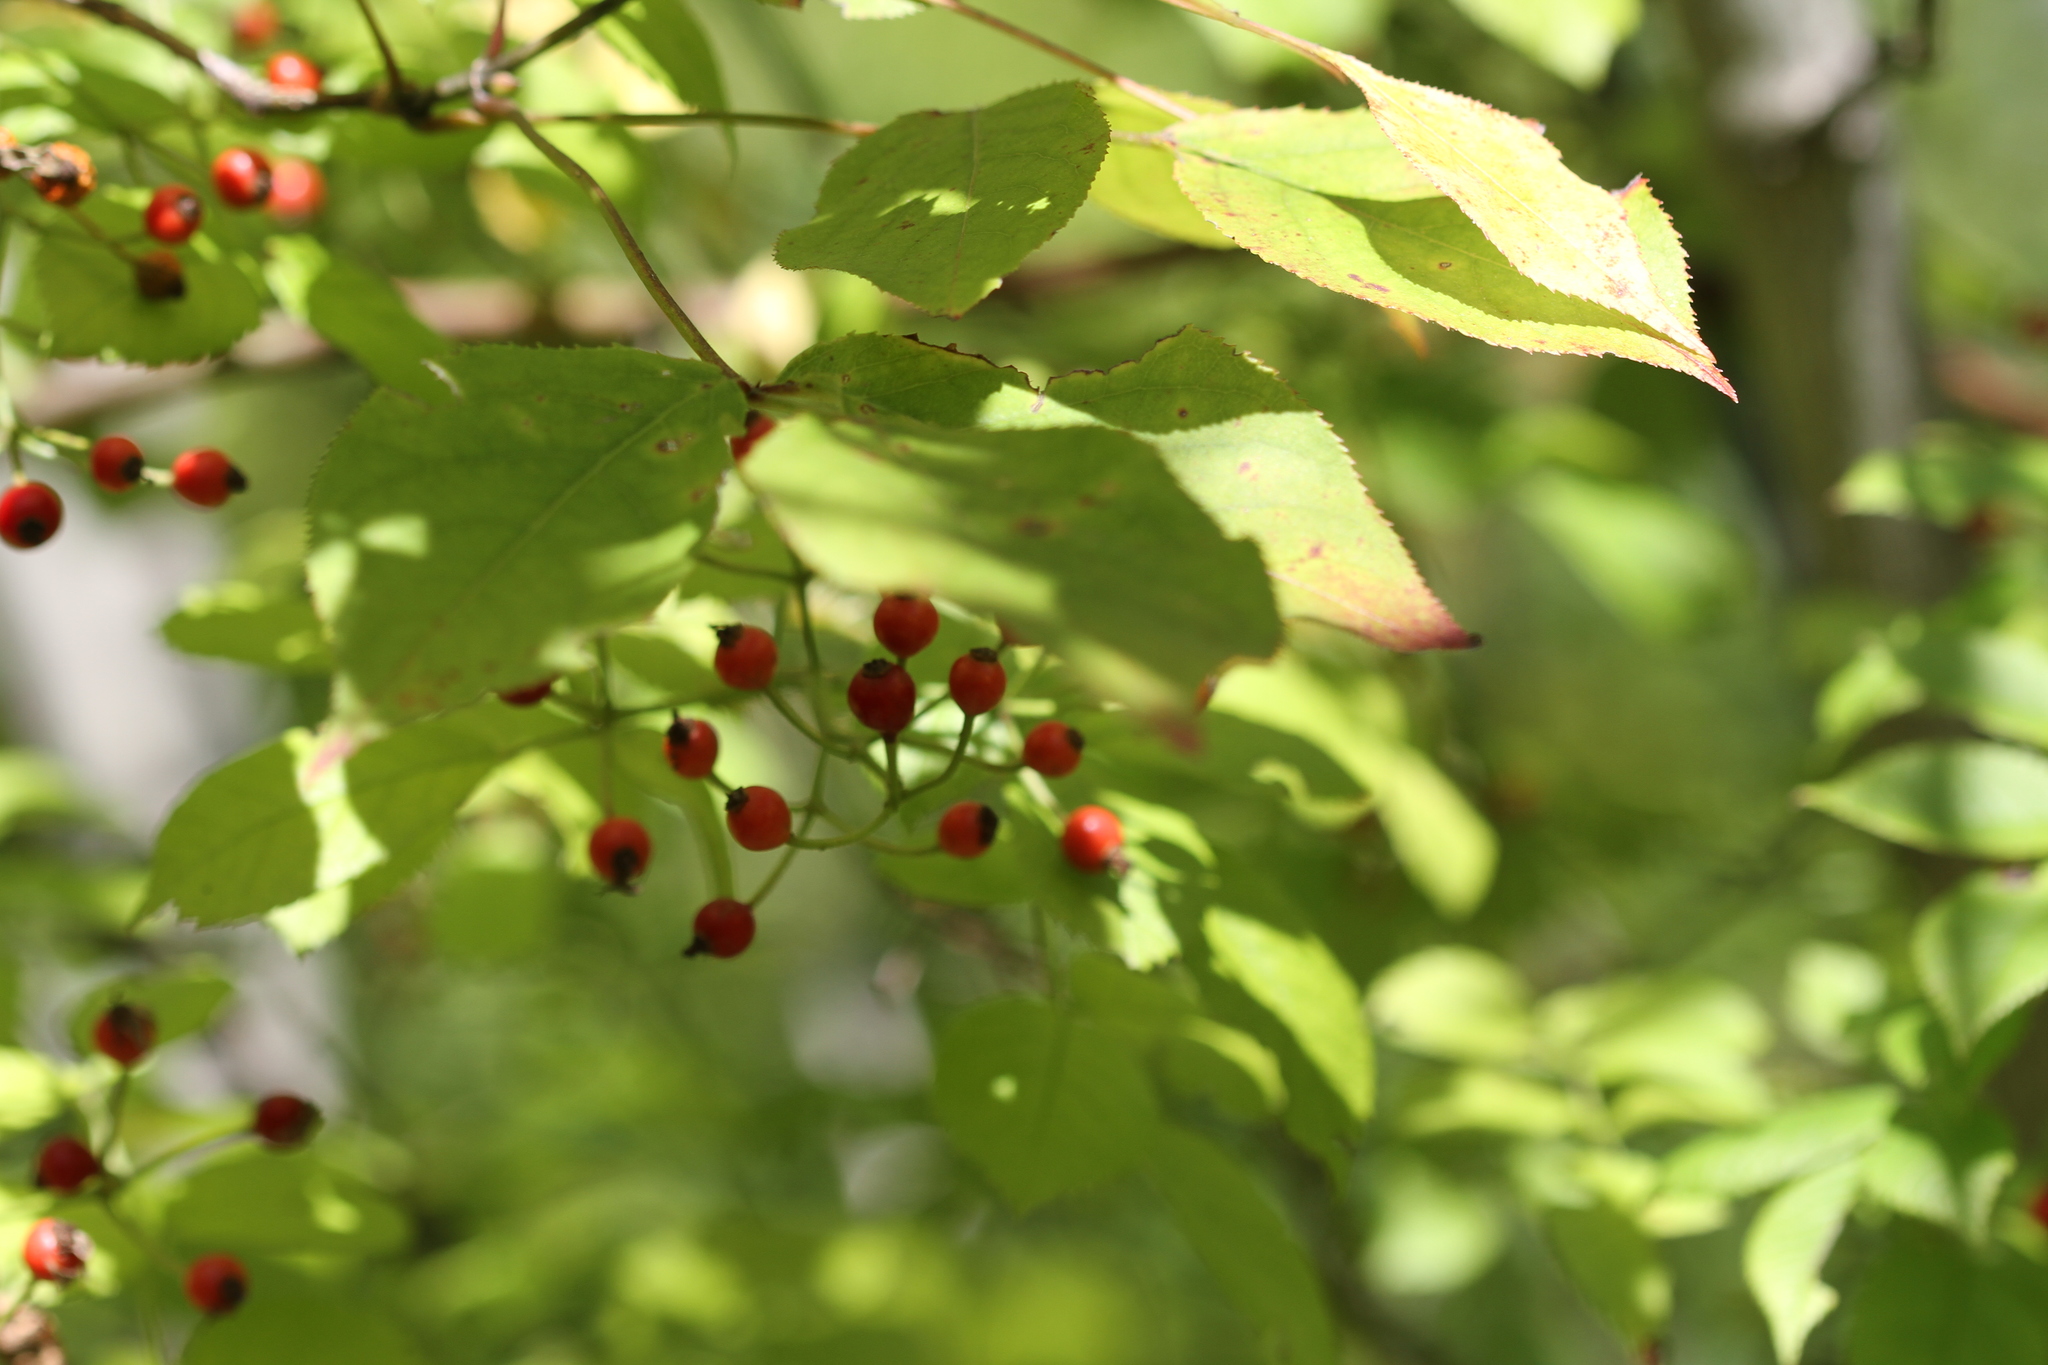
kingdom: Plantae
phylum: Tracheophyta
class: Magnoliopsida
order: Rosales
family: Rosaceae
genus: Rosa
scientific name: Rosa multiflora
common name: Multiflora rose
